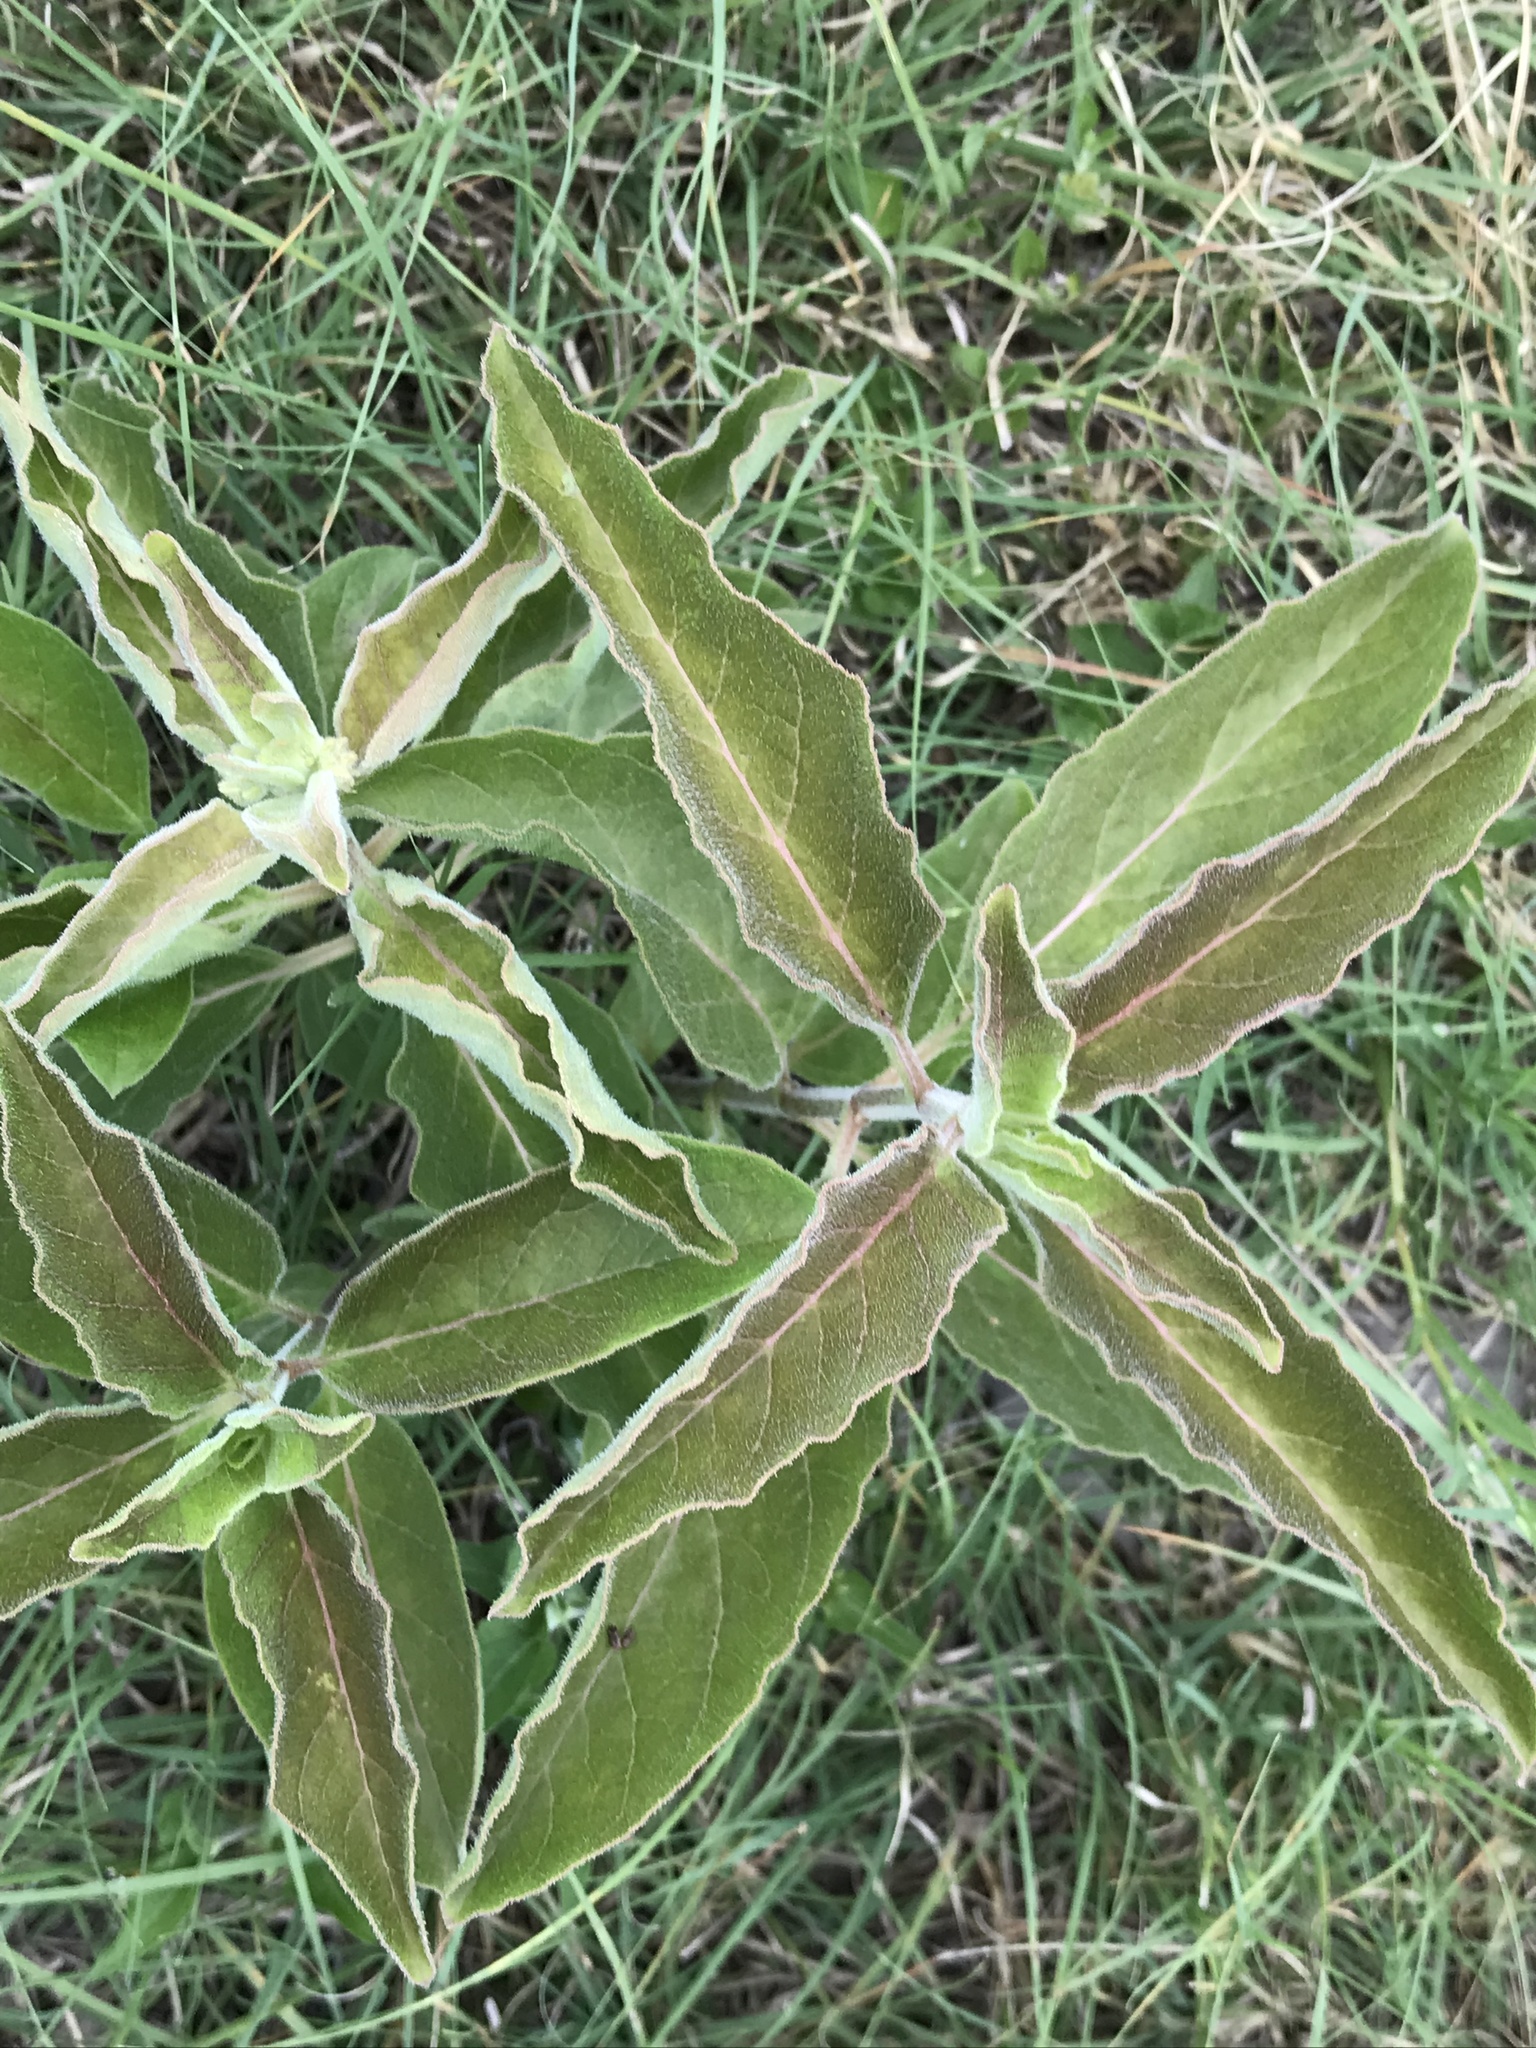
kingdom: Plantae
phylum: Tracheophyta
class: Magnoliopsida
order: Gentianales
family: Apocynaceae
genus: Asclepias
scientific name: Asclepias oenotheroides
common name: Zizotes milkweed
